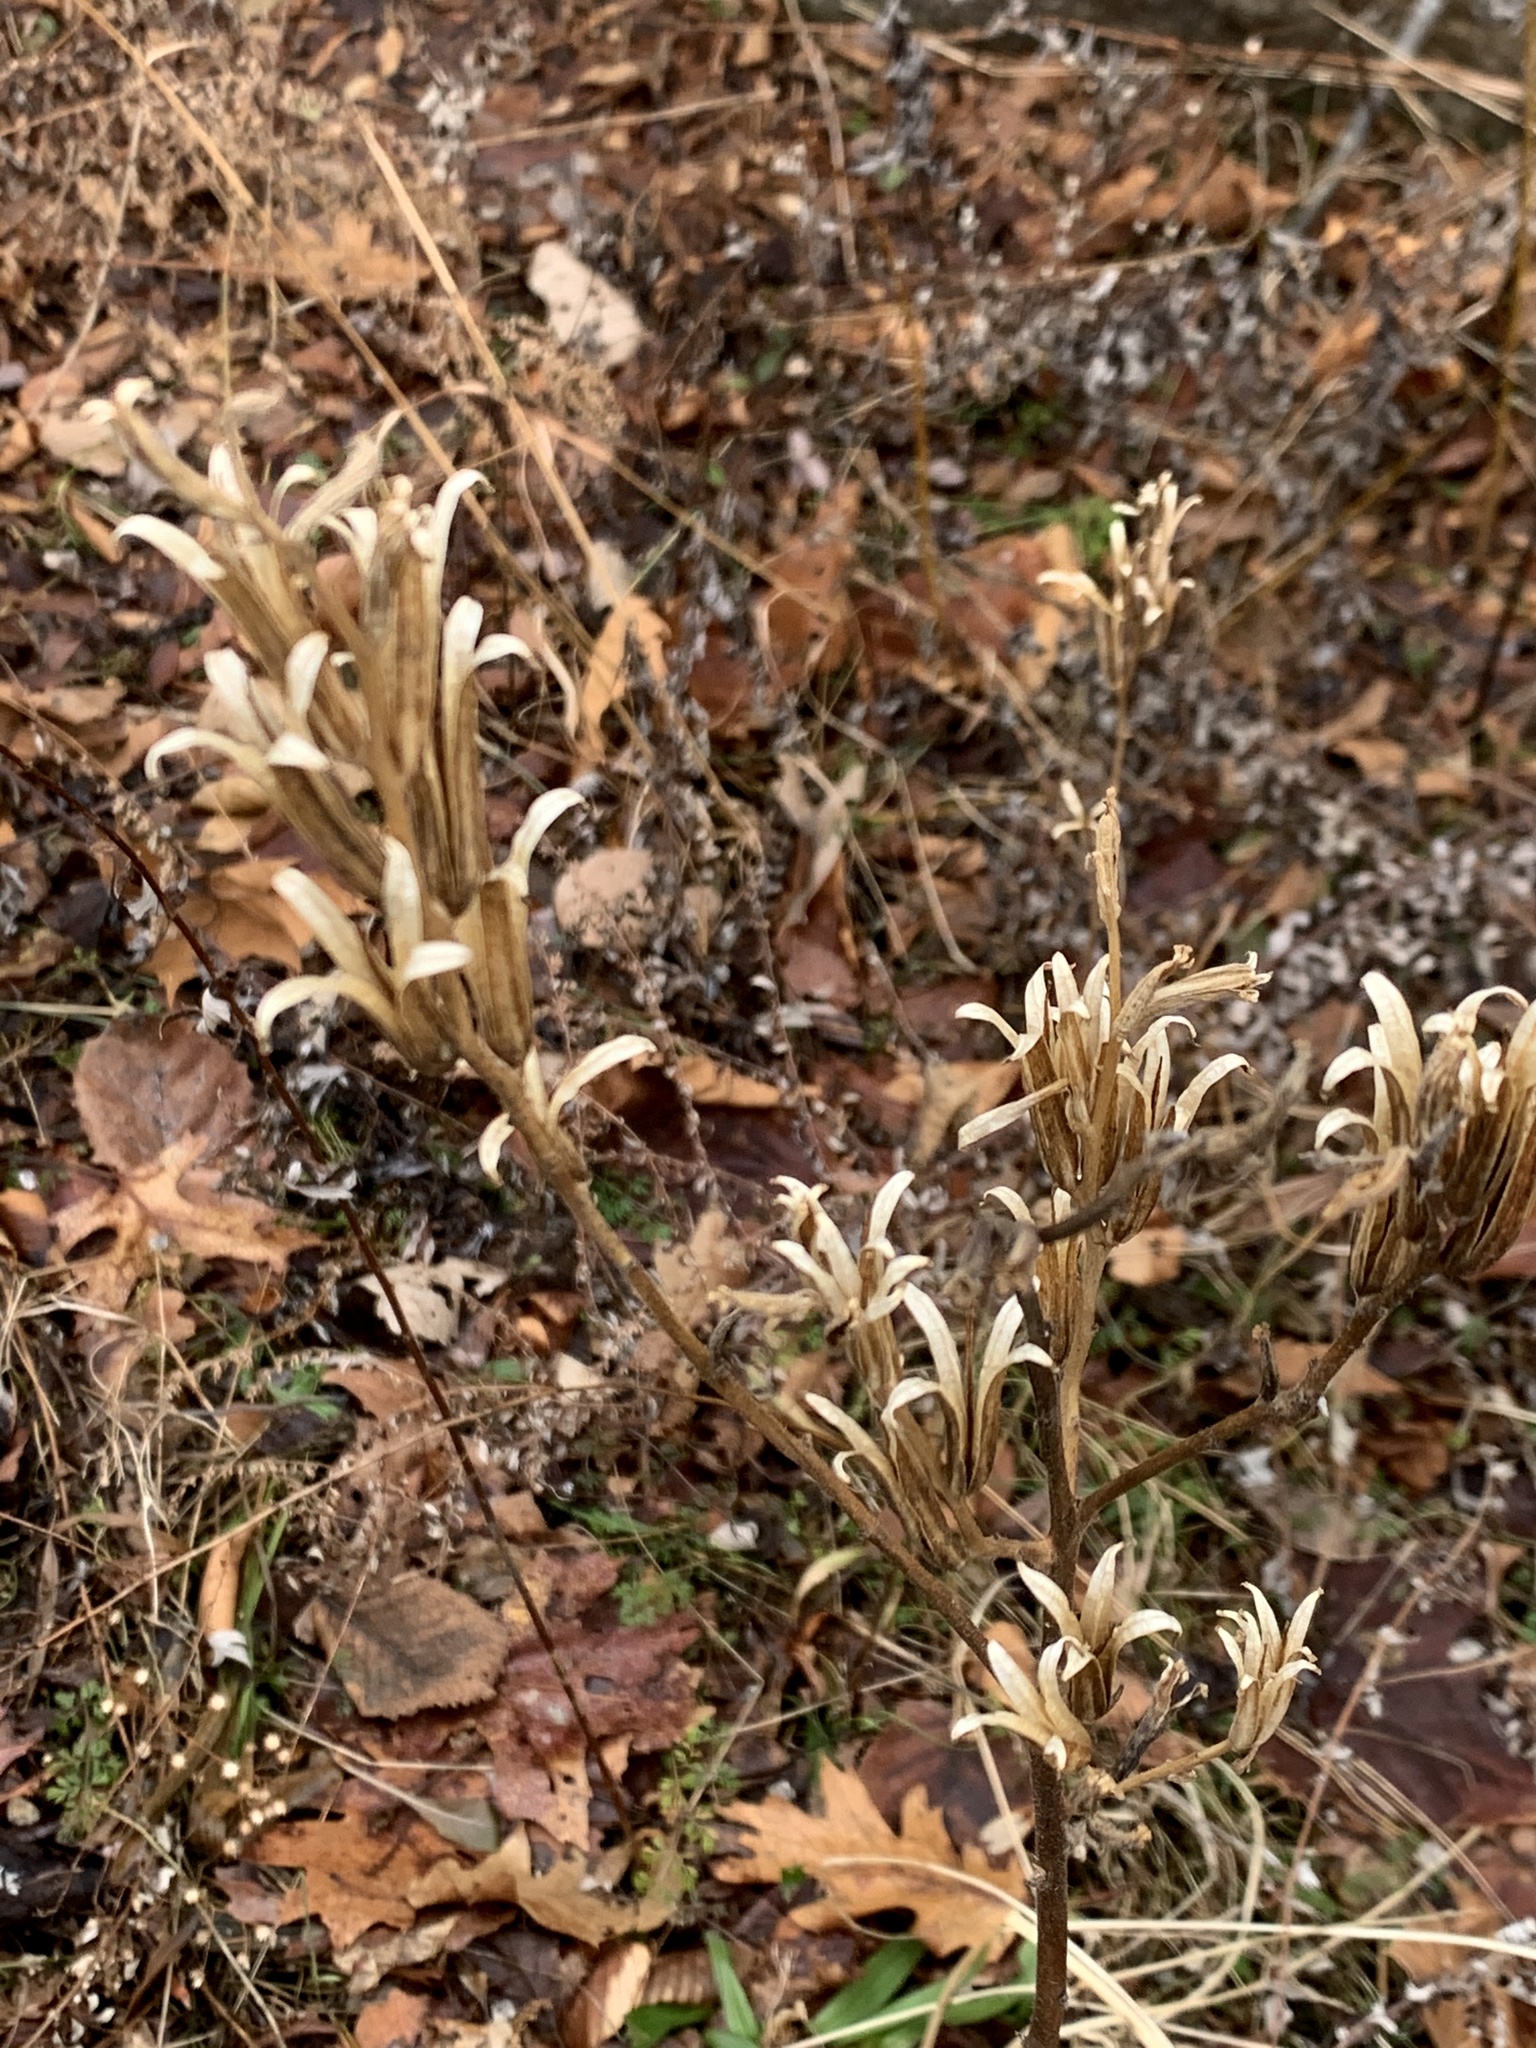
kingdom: Plantae
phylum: Tracheophyta
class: Magnoliopsida
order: Myrtales
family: Onagraceae
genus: Oenothera
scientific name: Oenothera biennis
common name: Common evening-primrose
